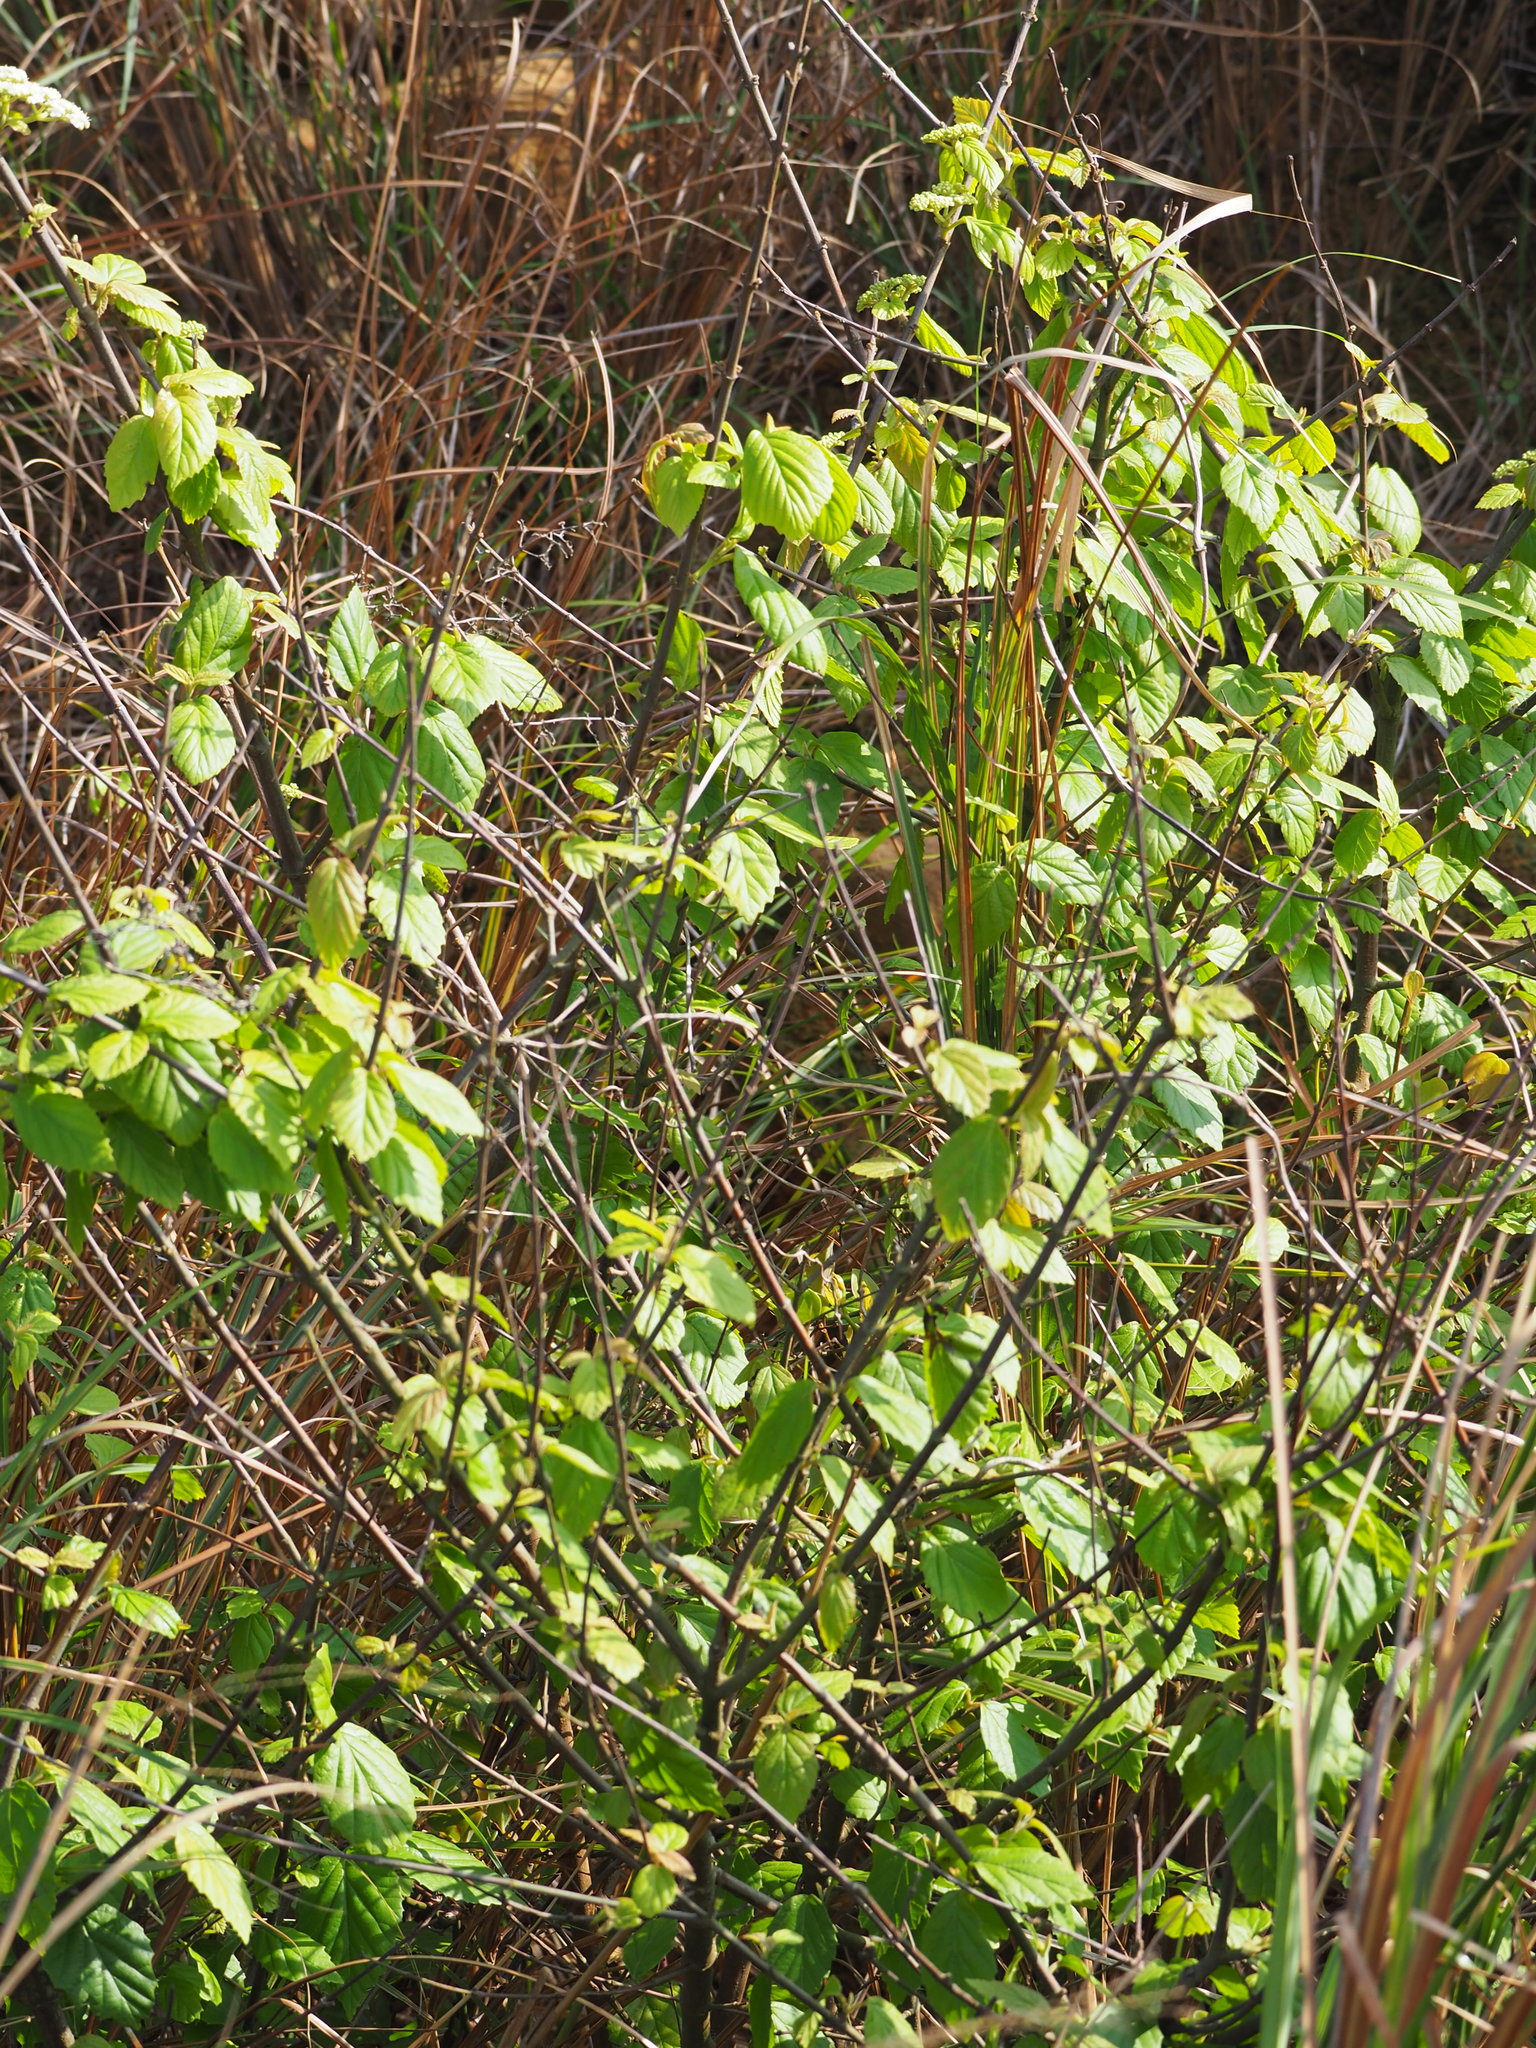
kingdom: Plantae
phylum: Tracheophyta
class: Magnoliopsida
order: Dipsacales
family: Viburnaceae
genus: Viburnum
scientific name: Viburnum luzonicum
